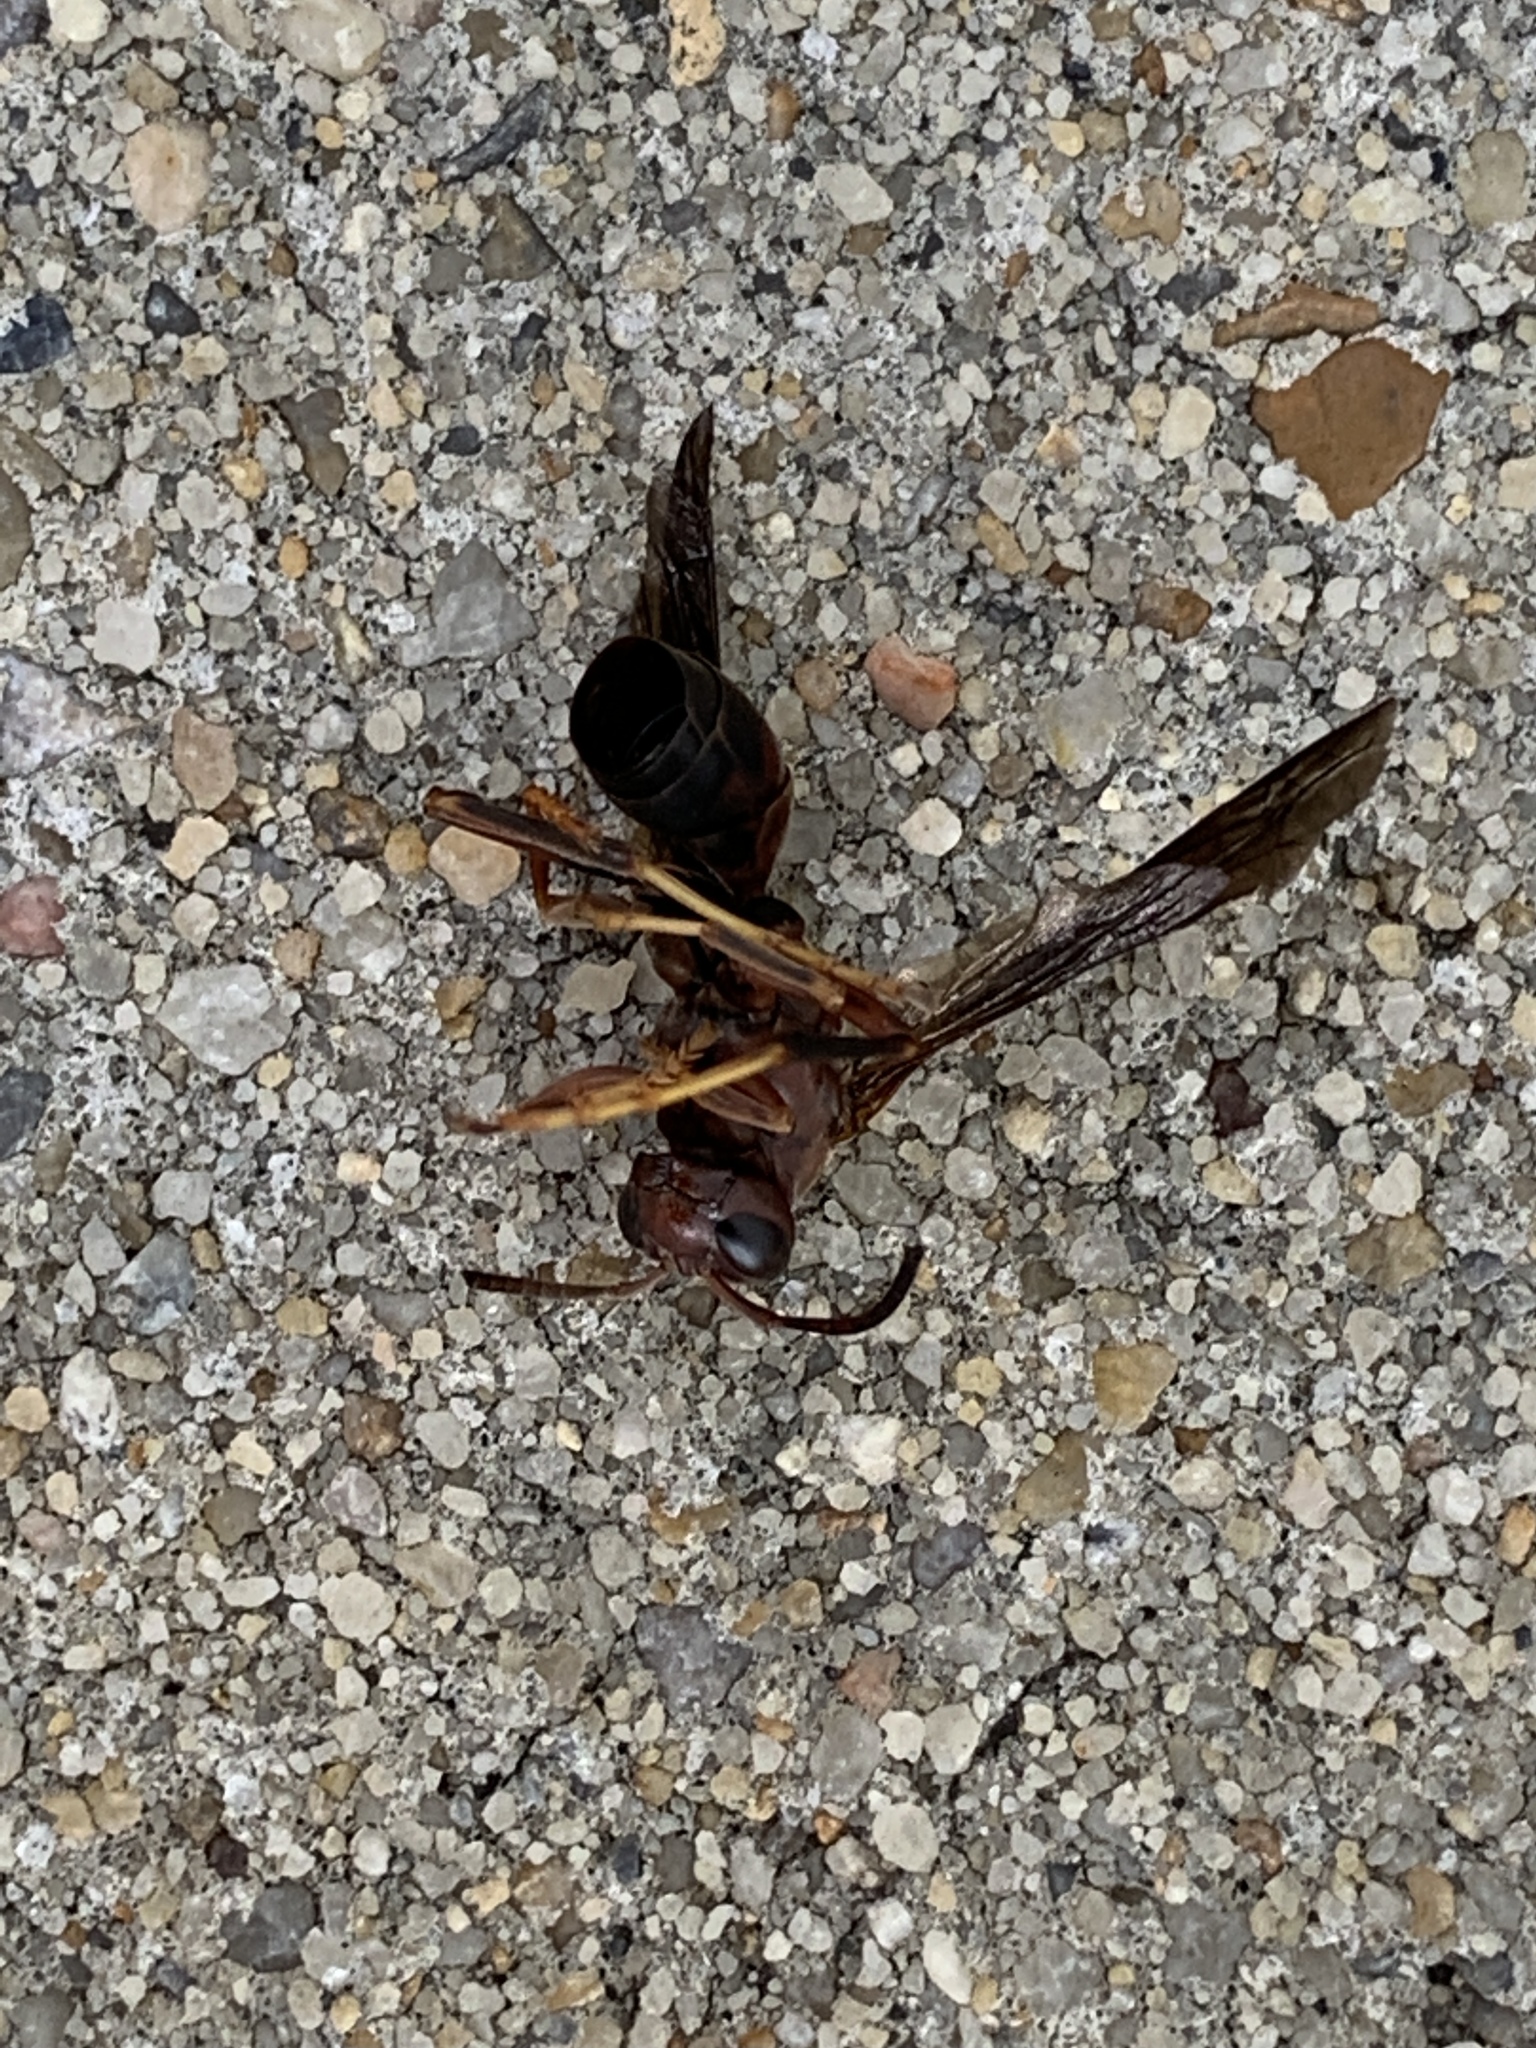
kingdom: Animalia
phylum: Arthropoda
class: Insecta
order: Hymenoptera
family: Eumenidae
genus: Polistes
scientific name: Polistes metricus
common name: Metric paper wasp
